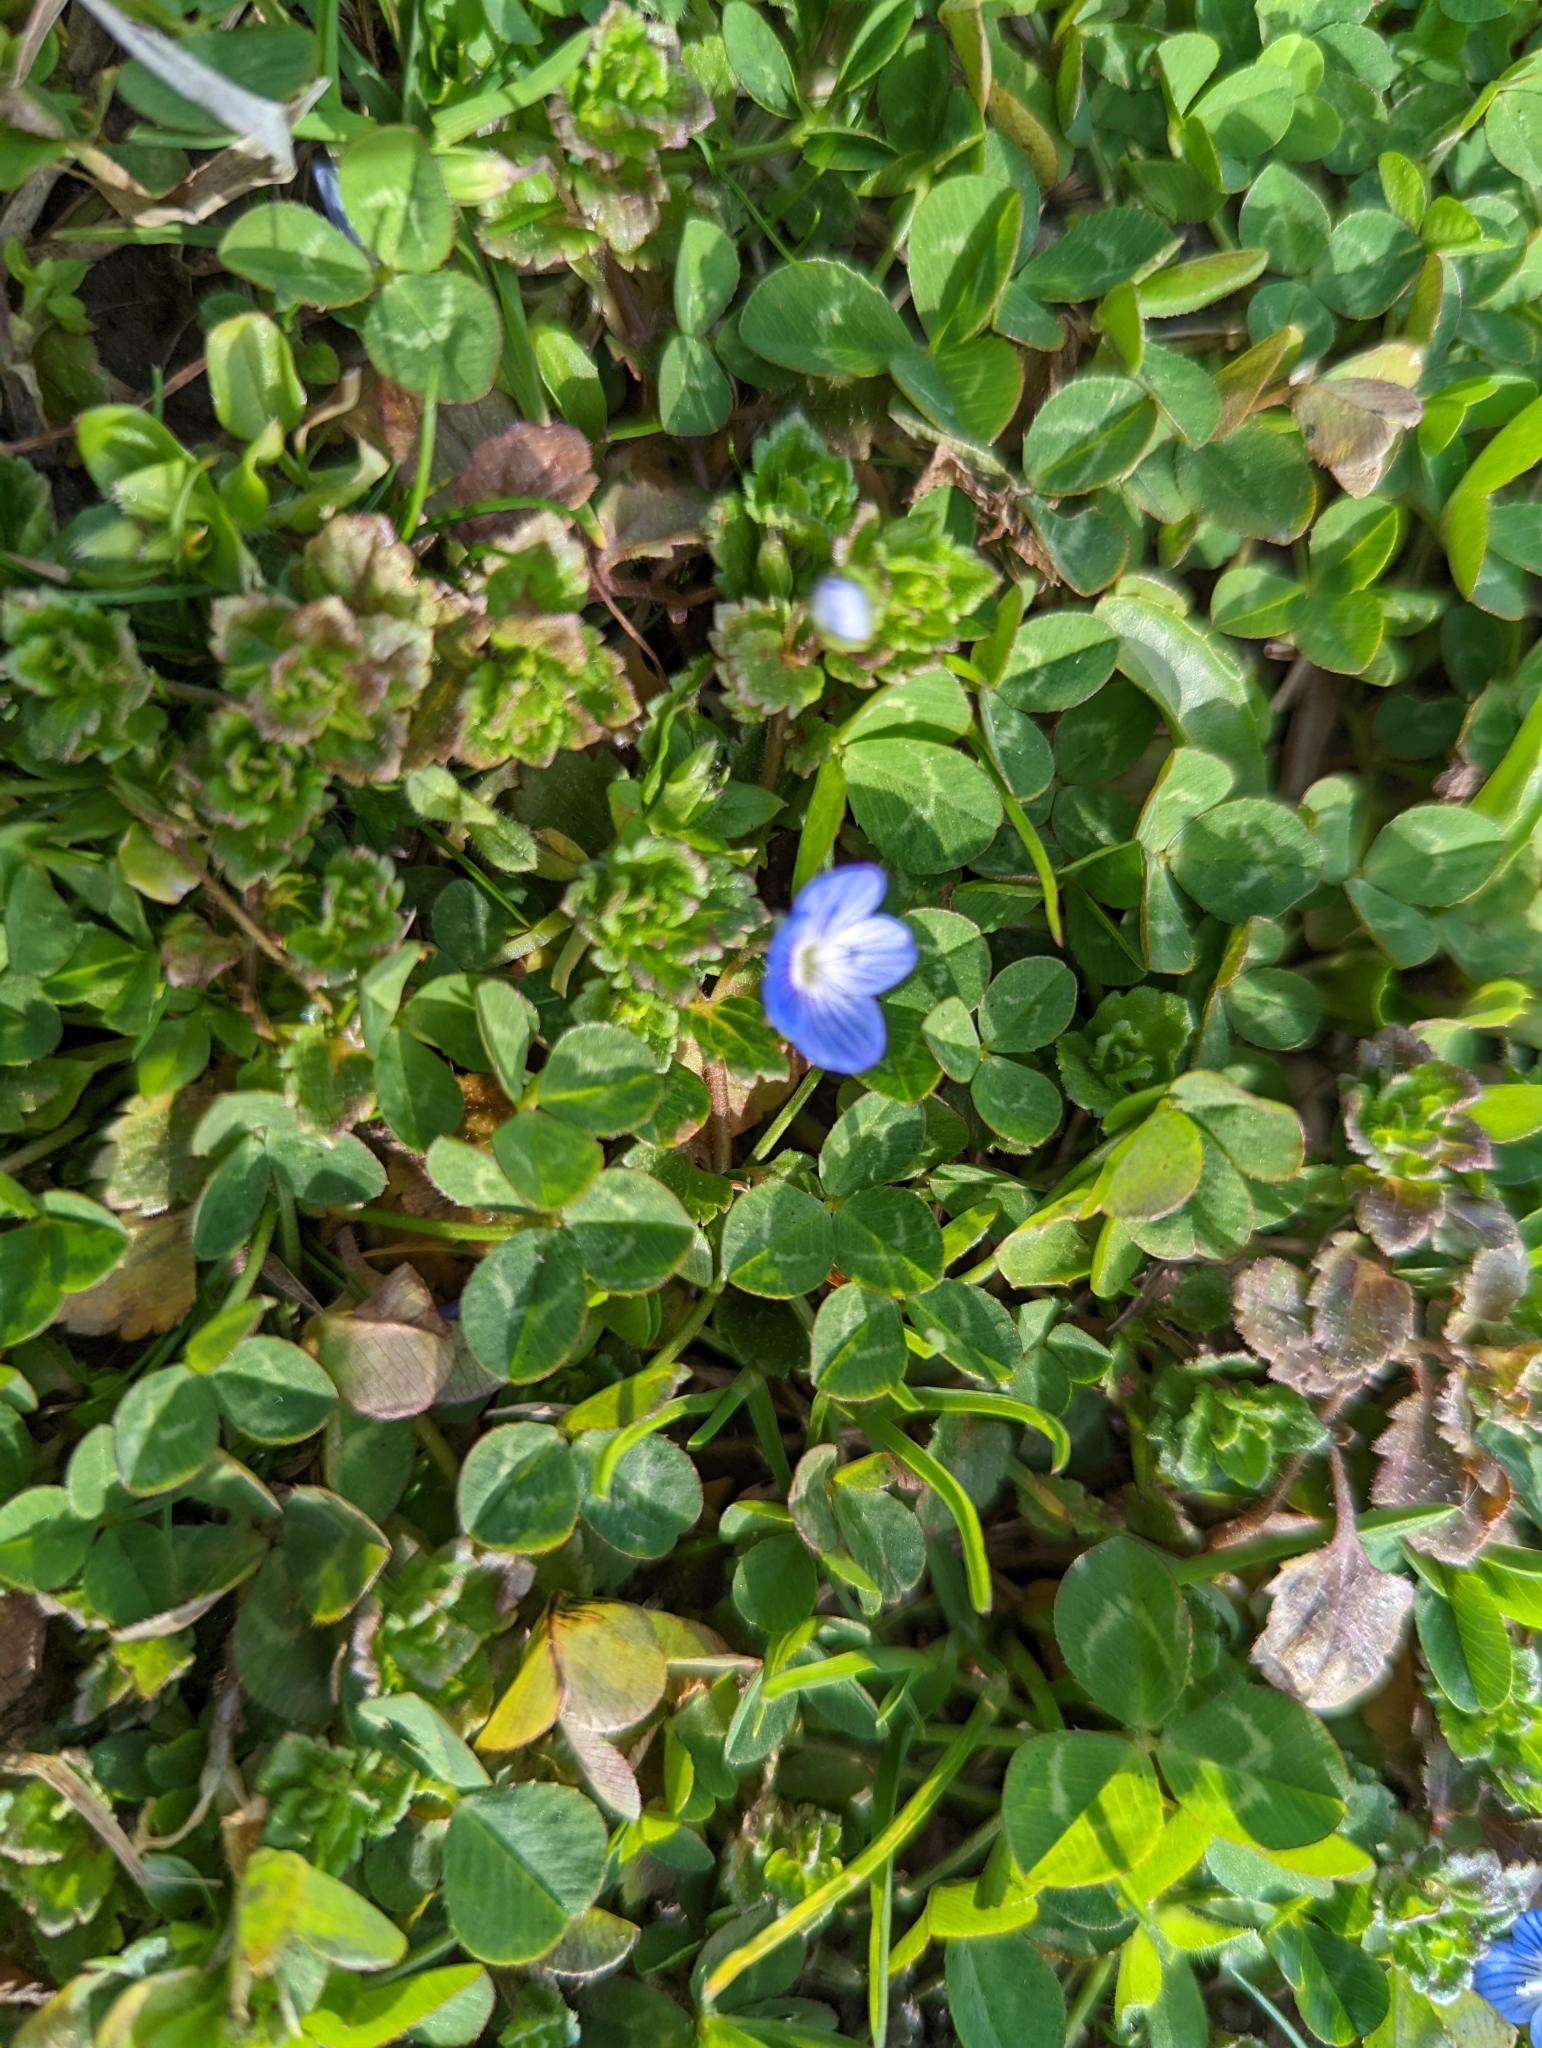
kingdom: Plantae
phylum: Tracheophyta
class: Magnoliopsida
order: Lamiales
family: Plantaginaceae
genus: Veronica
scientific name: Veronica persica
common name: Common field-speedwell
